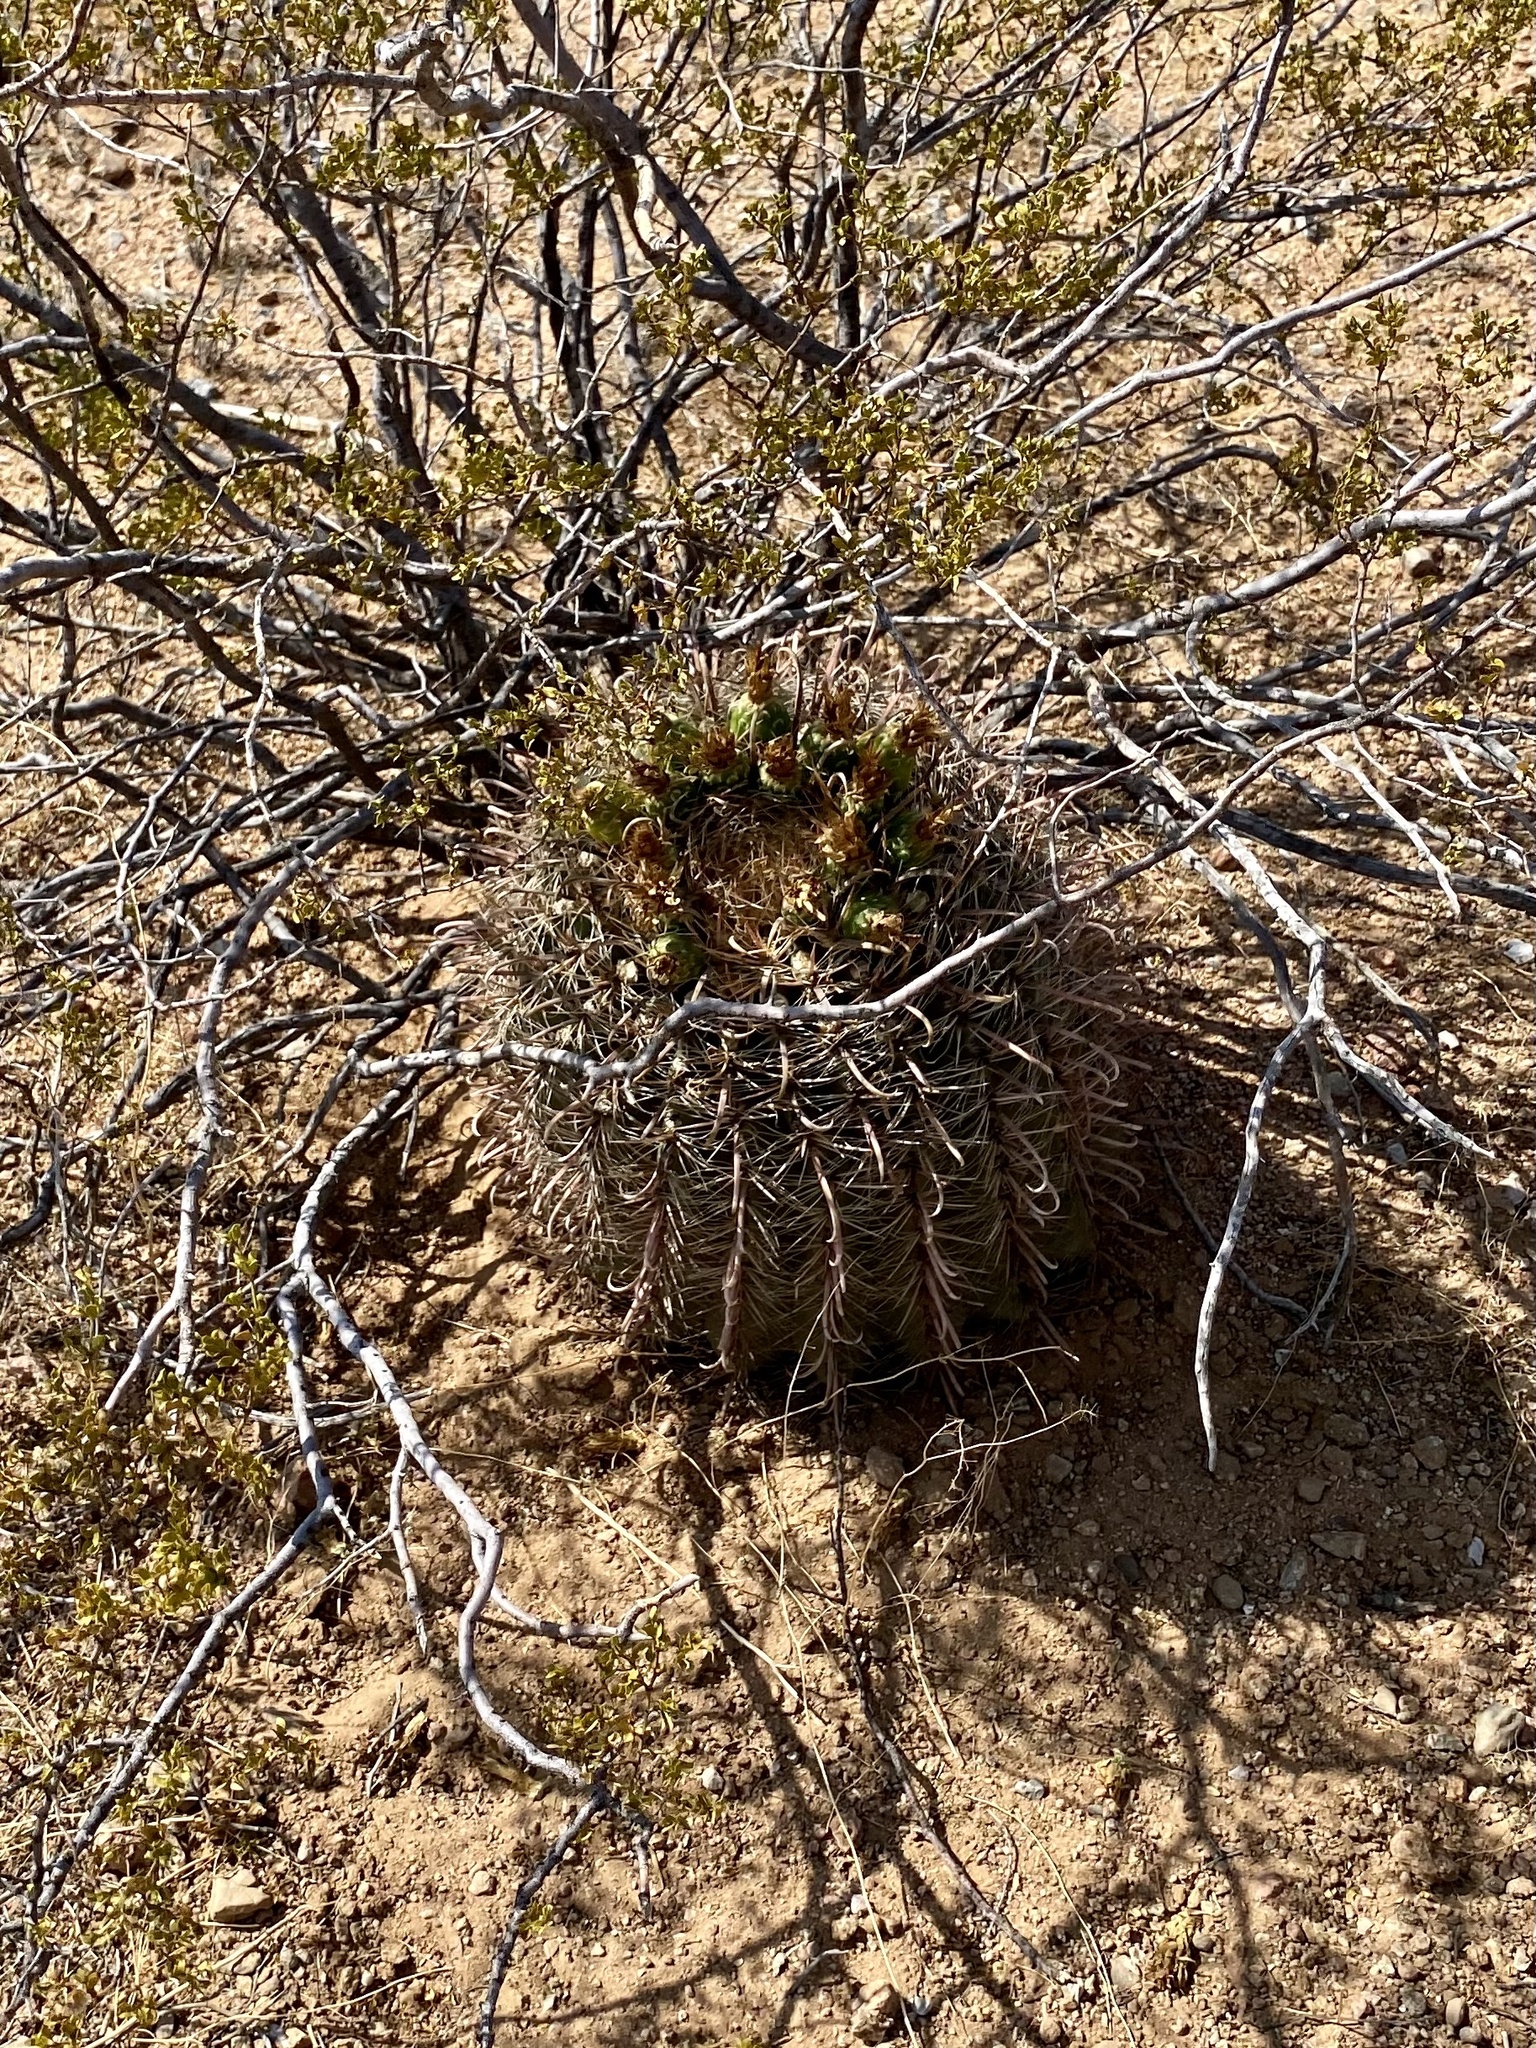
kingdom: Plantae
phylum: Tracheophyta
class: Magnoliopsida
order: Caryophyllales
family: Cactaceae
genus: Ferocactus
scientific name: Ferocactus wislizeni
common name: Candy barrel cactus
